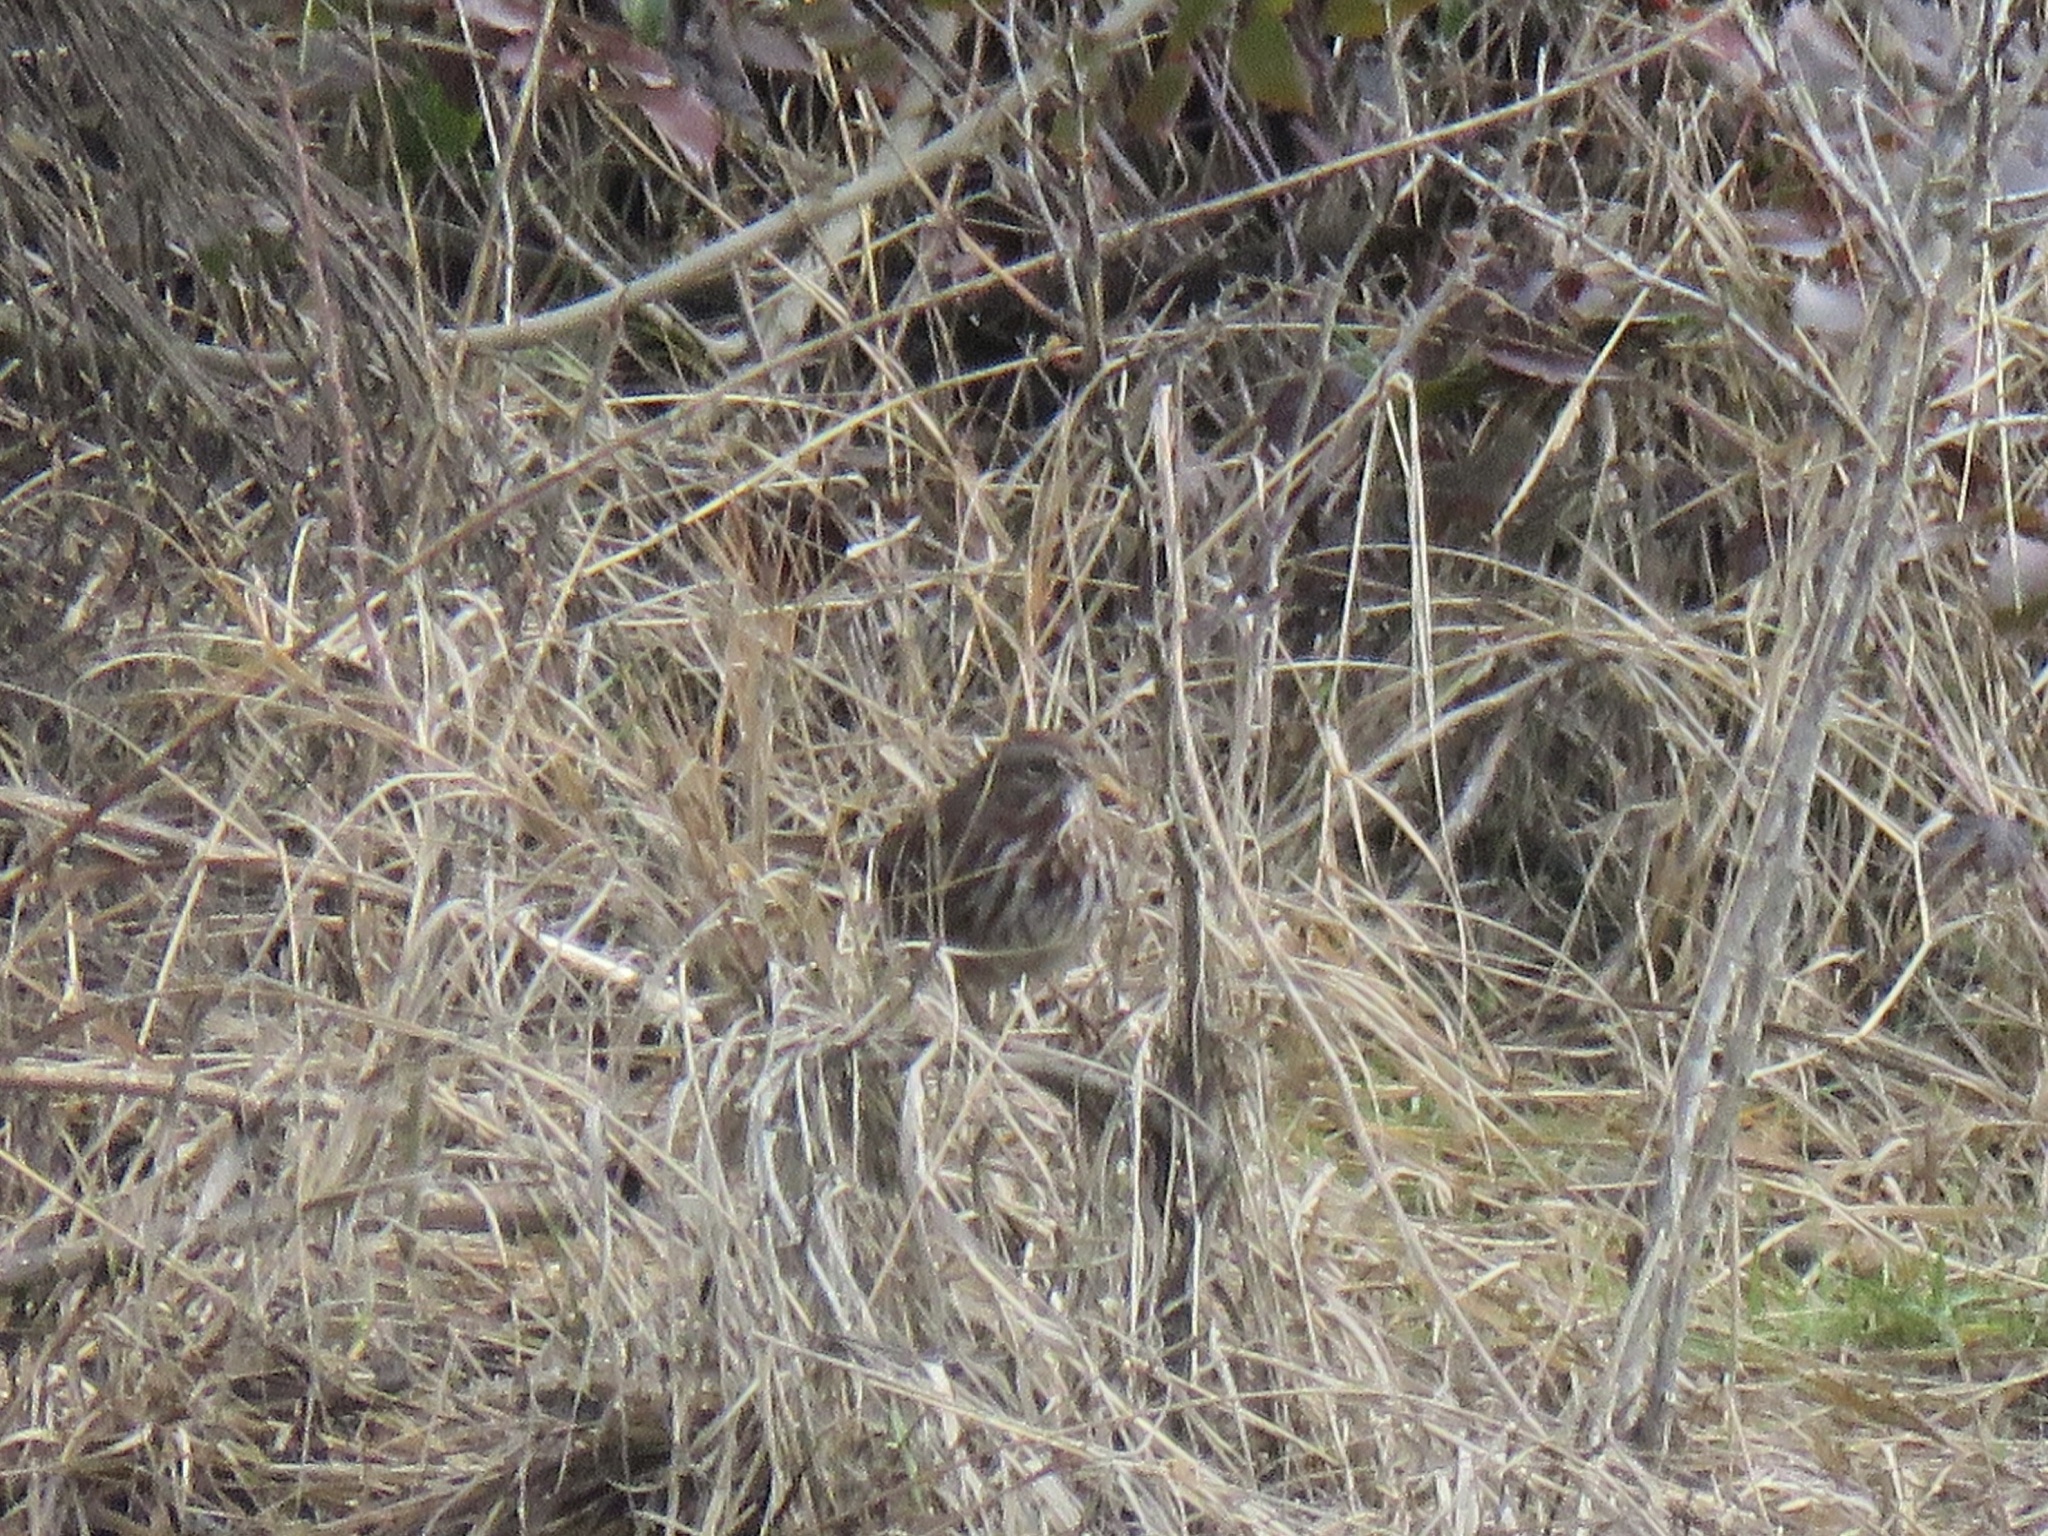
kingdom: Animalia
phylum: Chordata
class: Aves
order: Passeriformes
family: Passerellidae
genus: Melospiza
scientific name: Melospiza melodia
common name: Song sparrow
